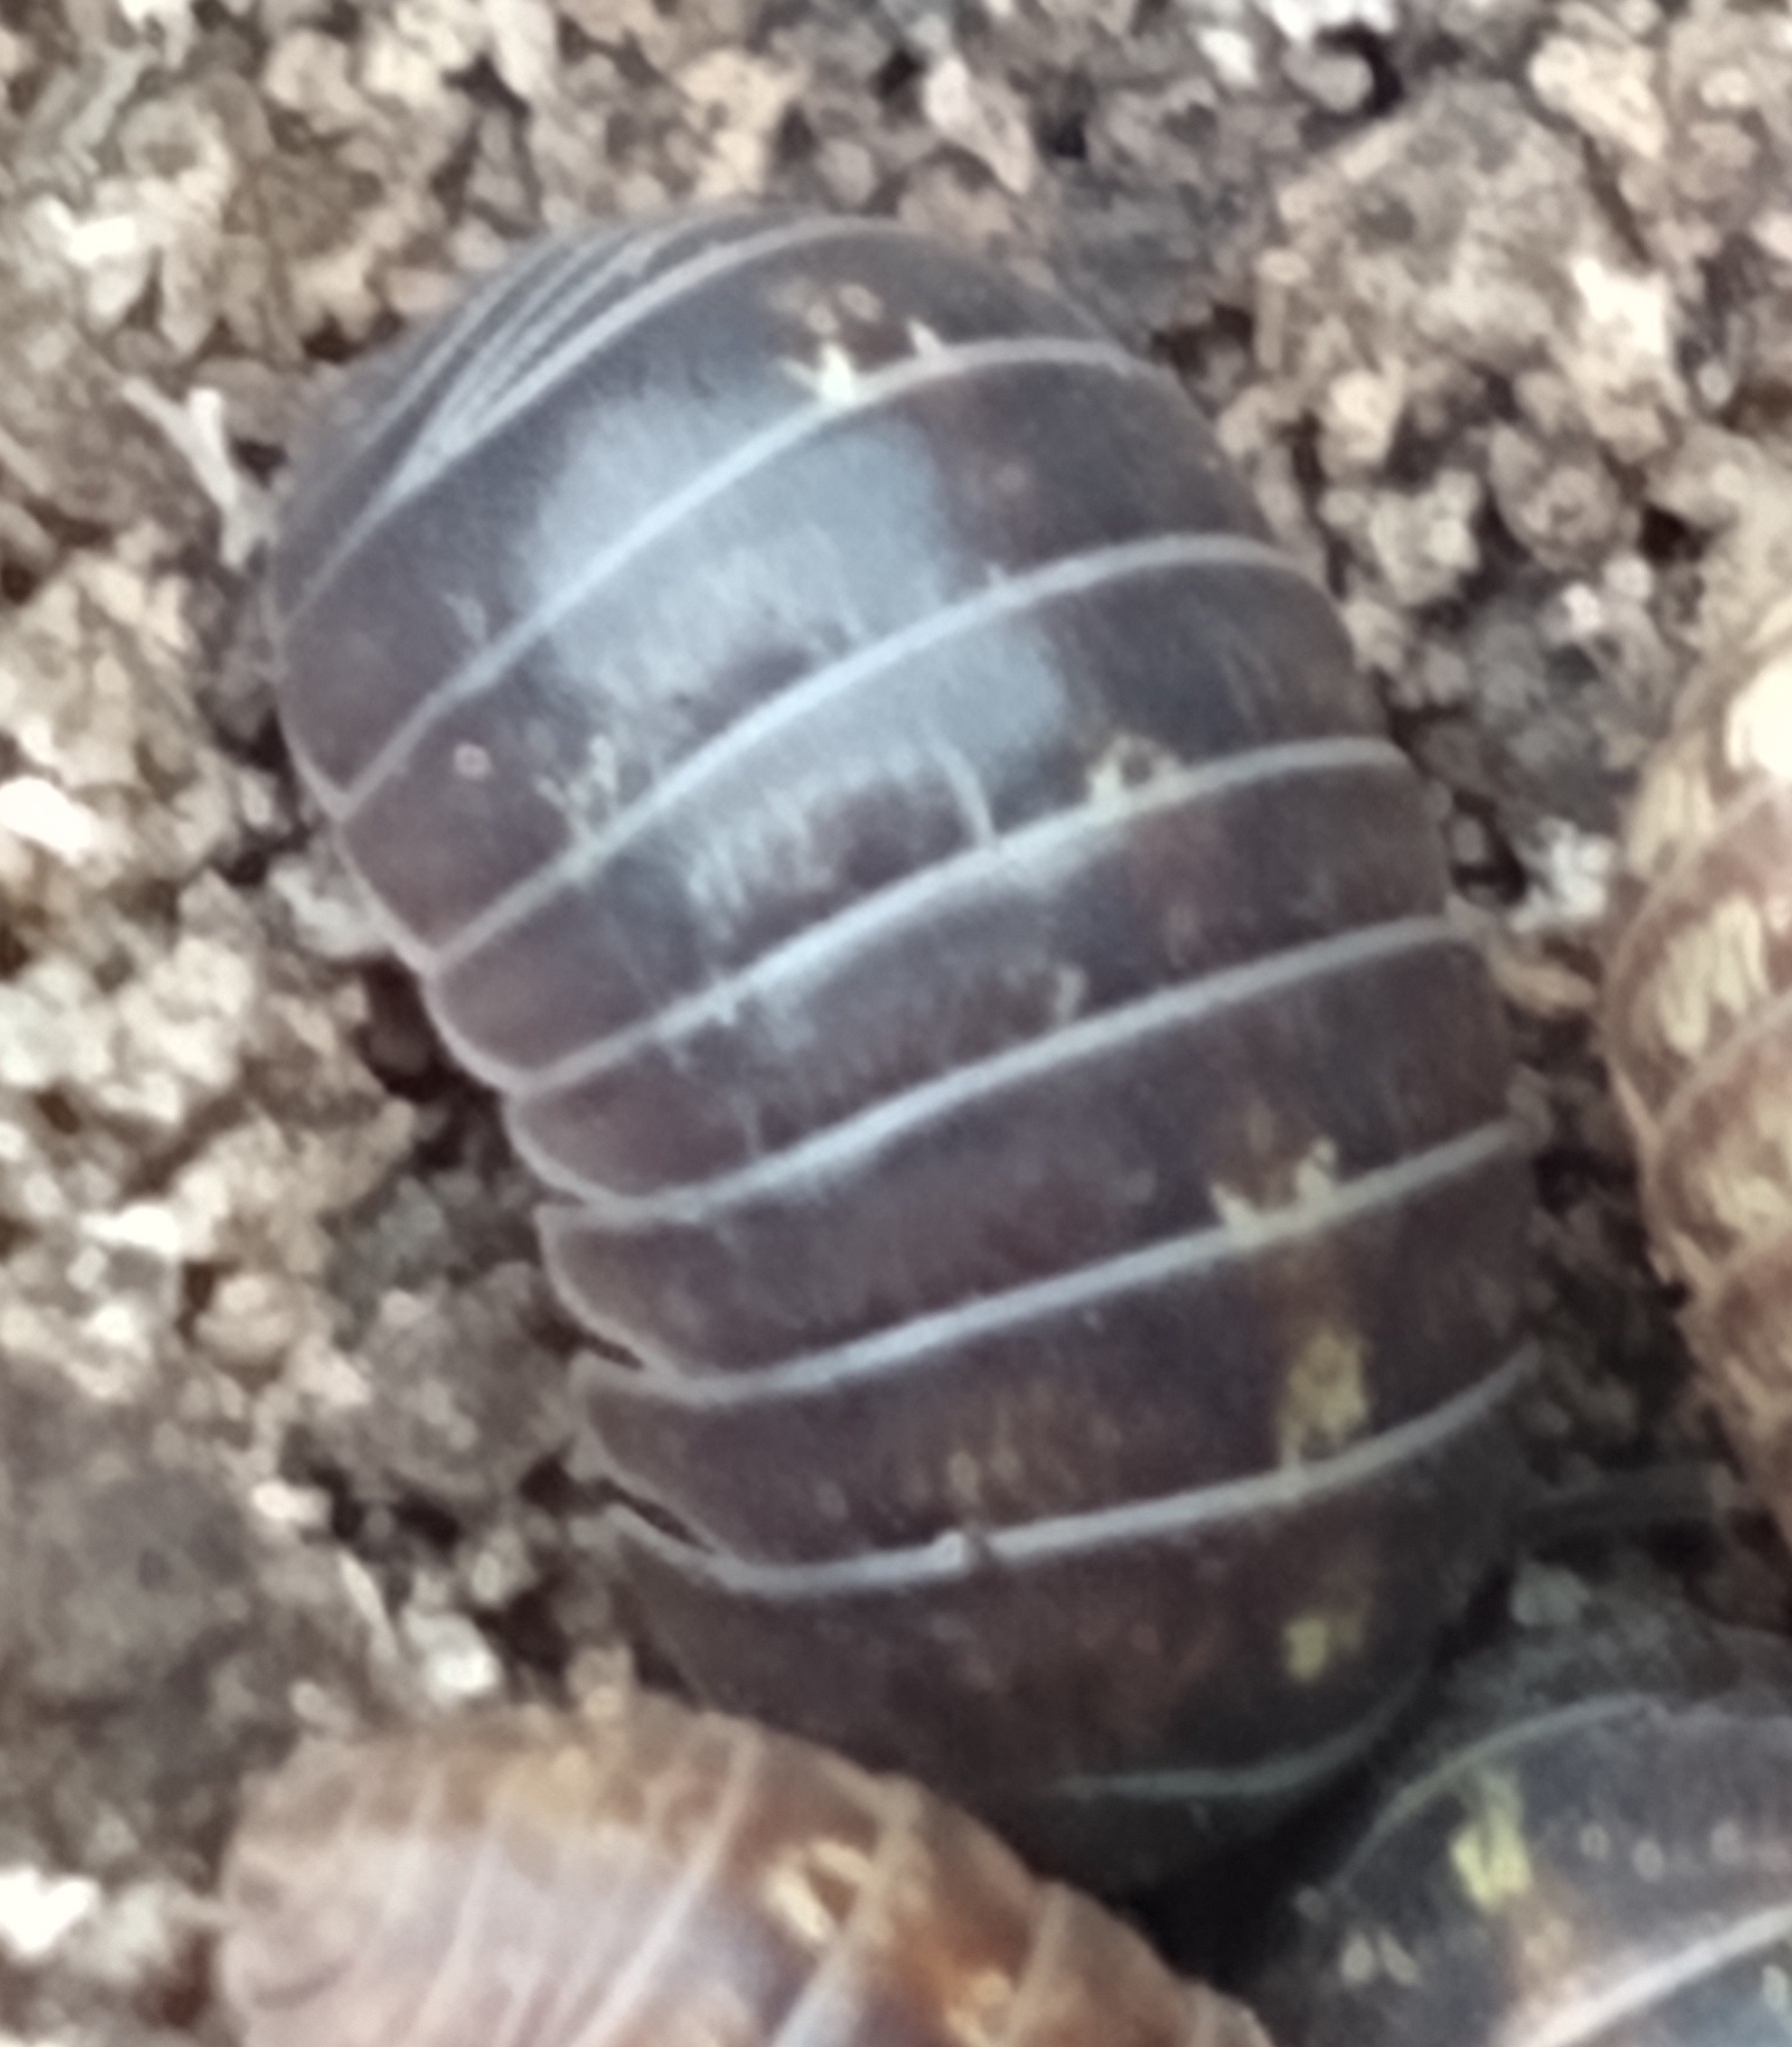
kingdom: Animalia
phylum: Arthropoda
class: Malacostraca
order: Isopoda
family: Armadillidiidae
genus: Armadillidium
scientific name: Armadillidium vulgare
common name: Common pill woodlouse
